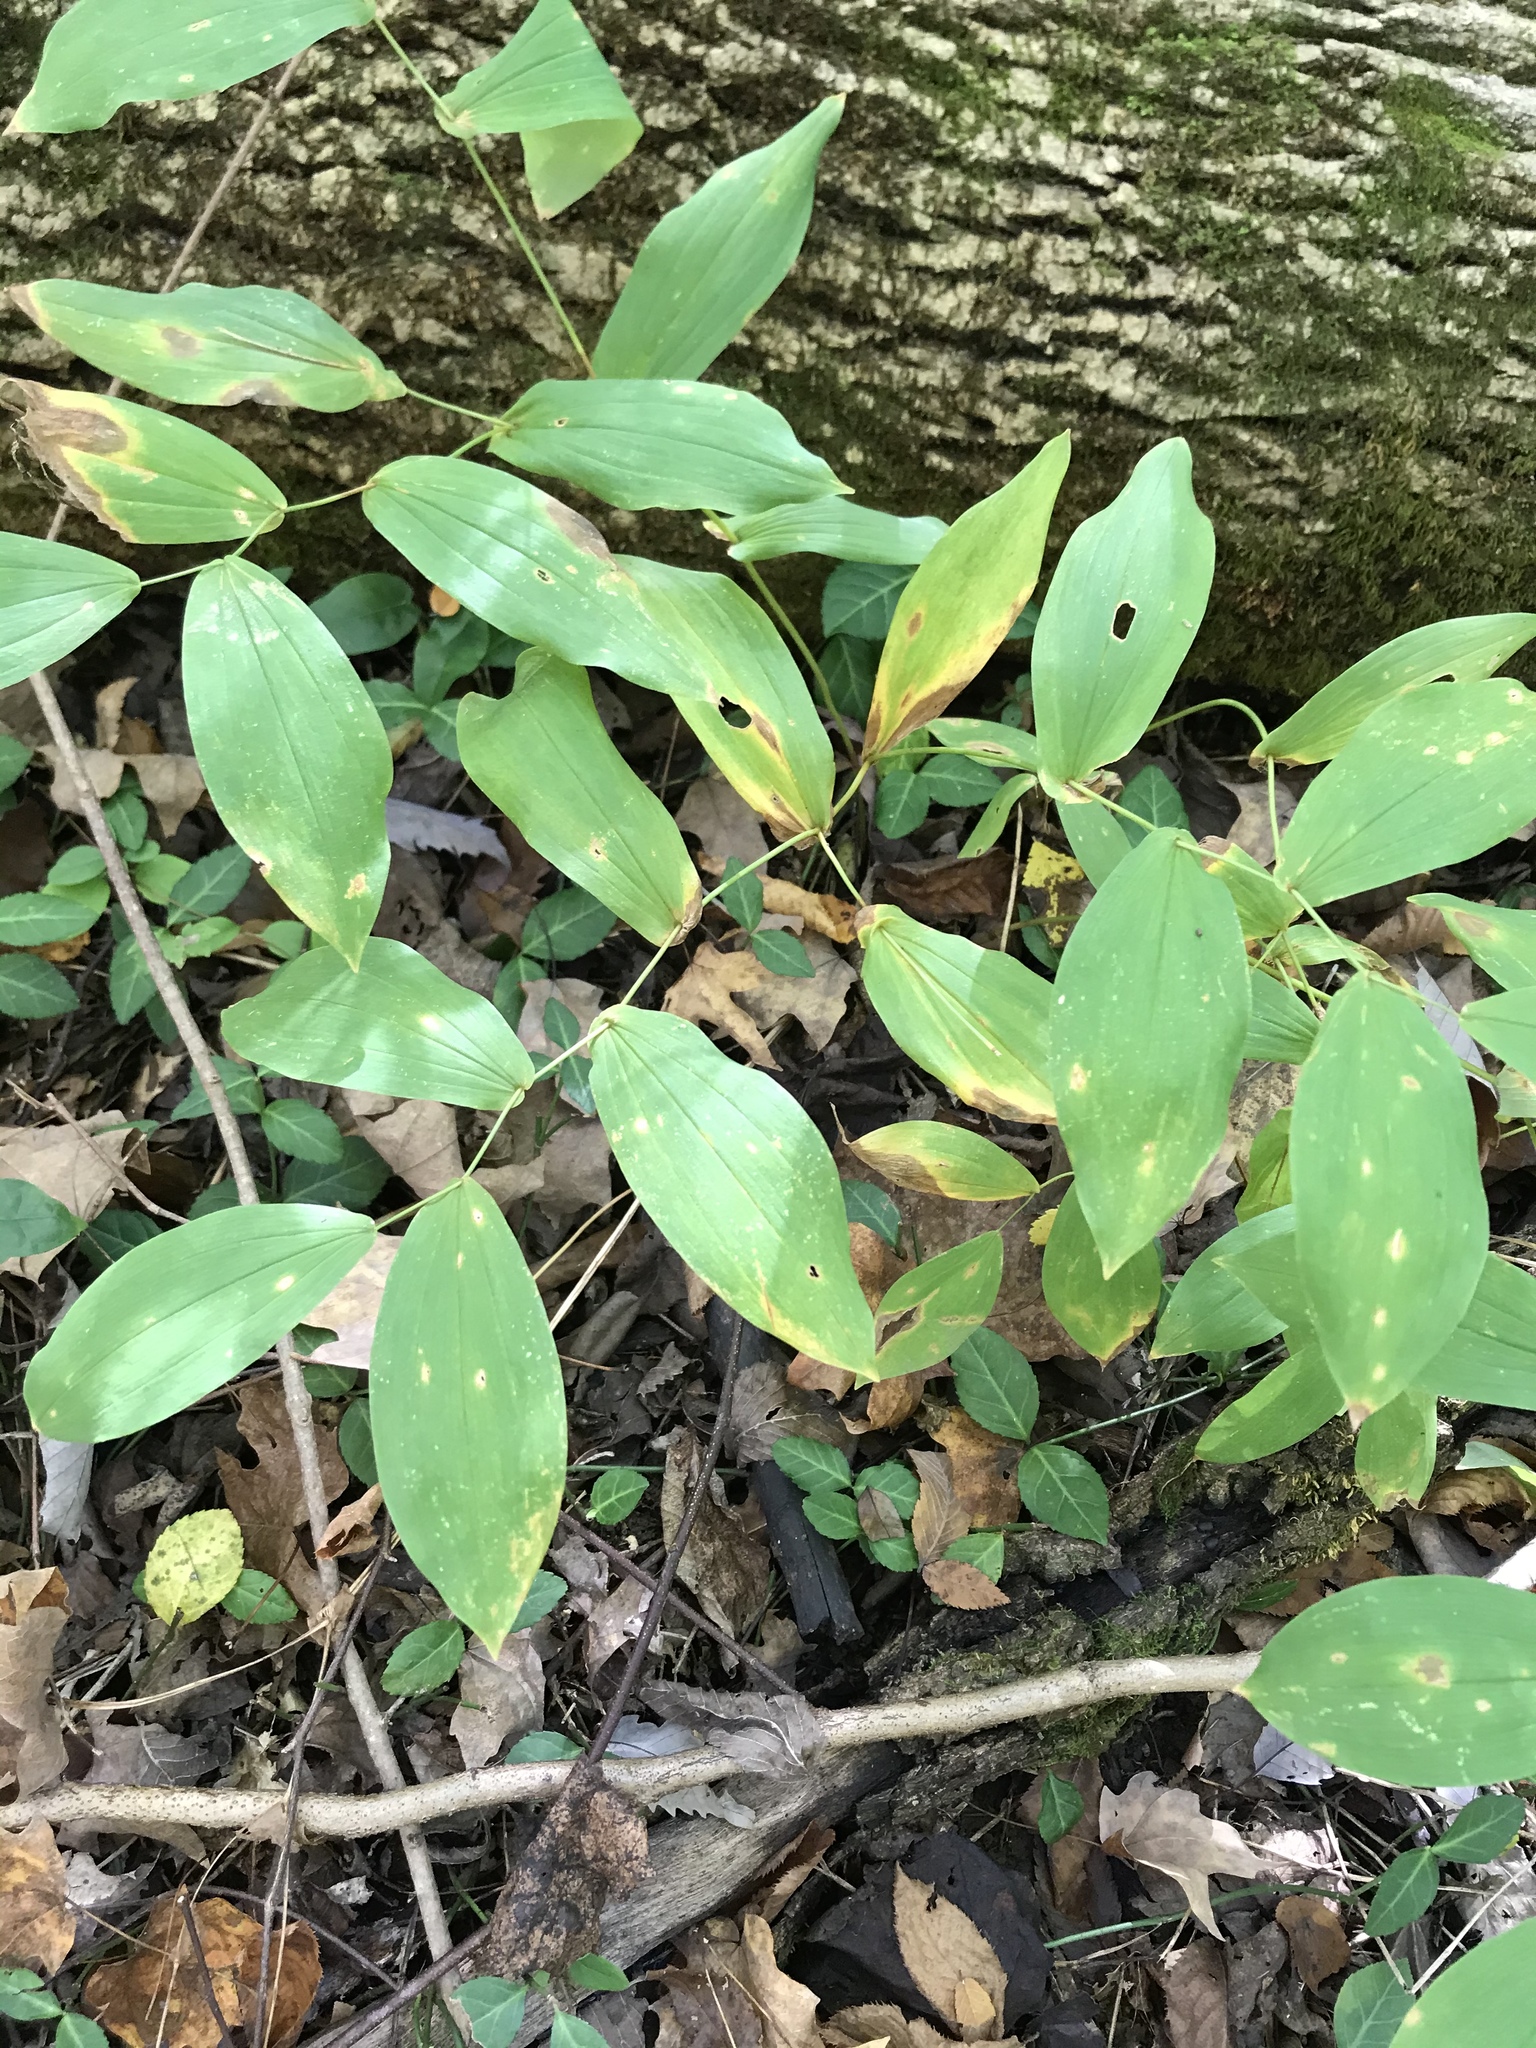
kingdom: Plantae
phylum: Tracheophyta
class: Liliopsida
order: Liliales
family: Colchicaceae
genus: Uvularia
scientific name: Uvularia
